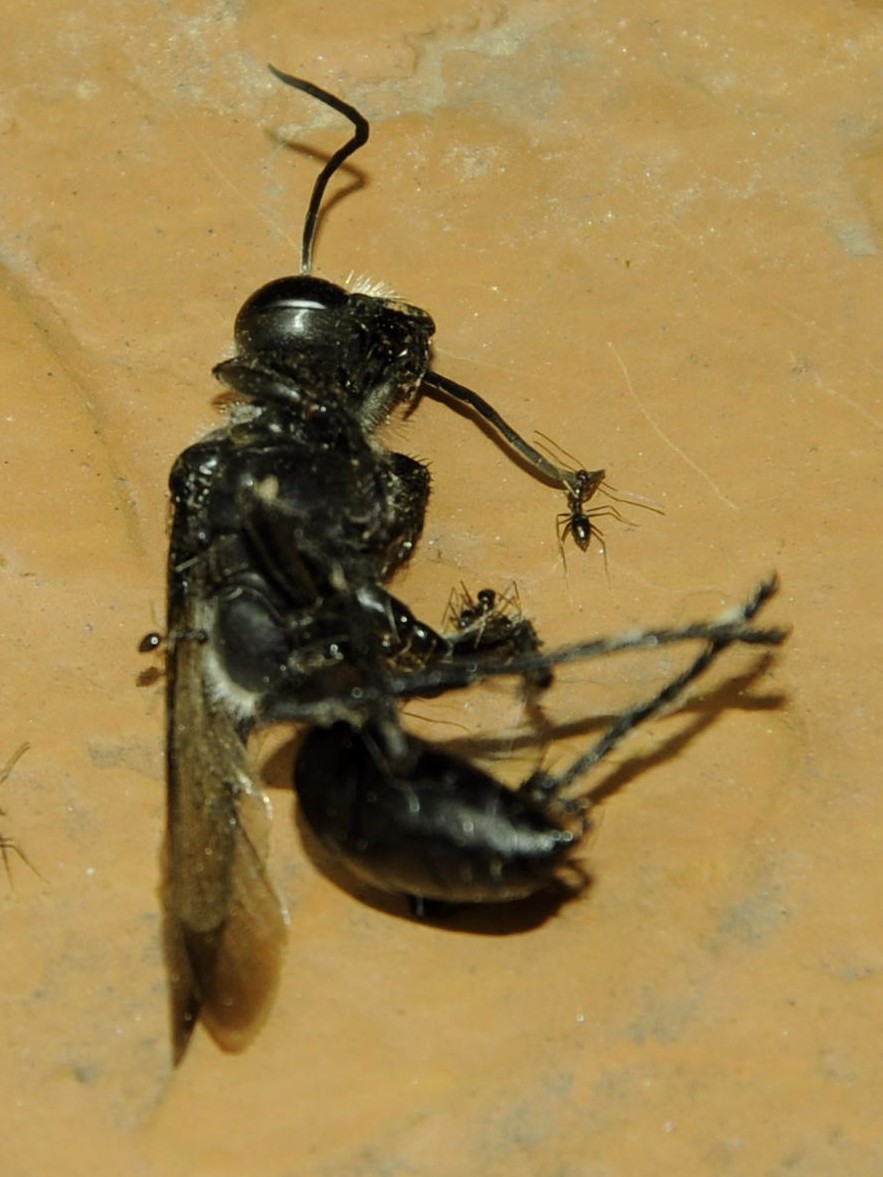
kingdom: Animalia
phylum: Arthropoda
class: Insecta
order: Hymenoptera
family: Sphecidae
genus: Sphex
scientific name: Sphex argentatus
